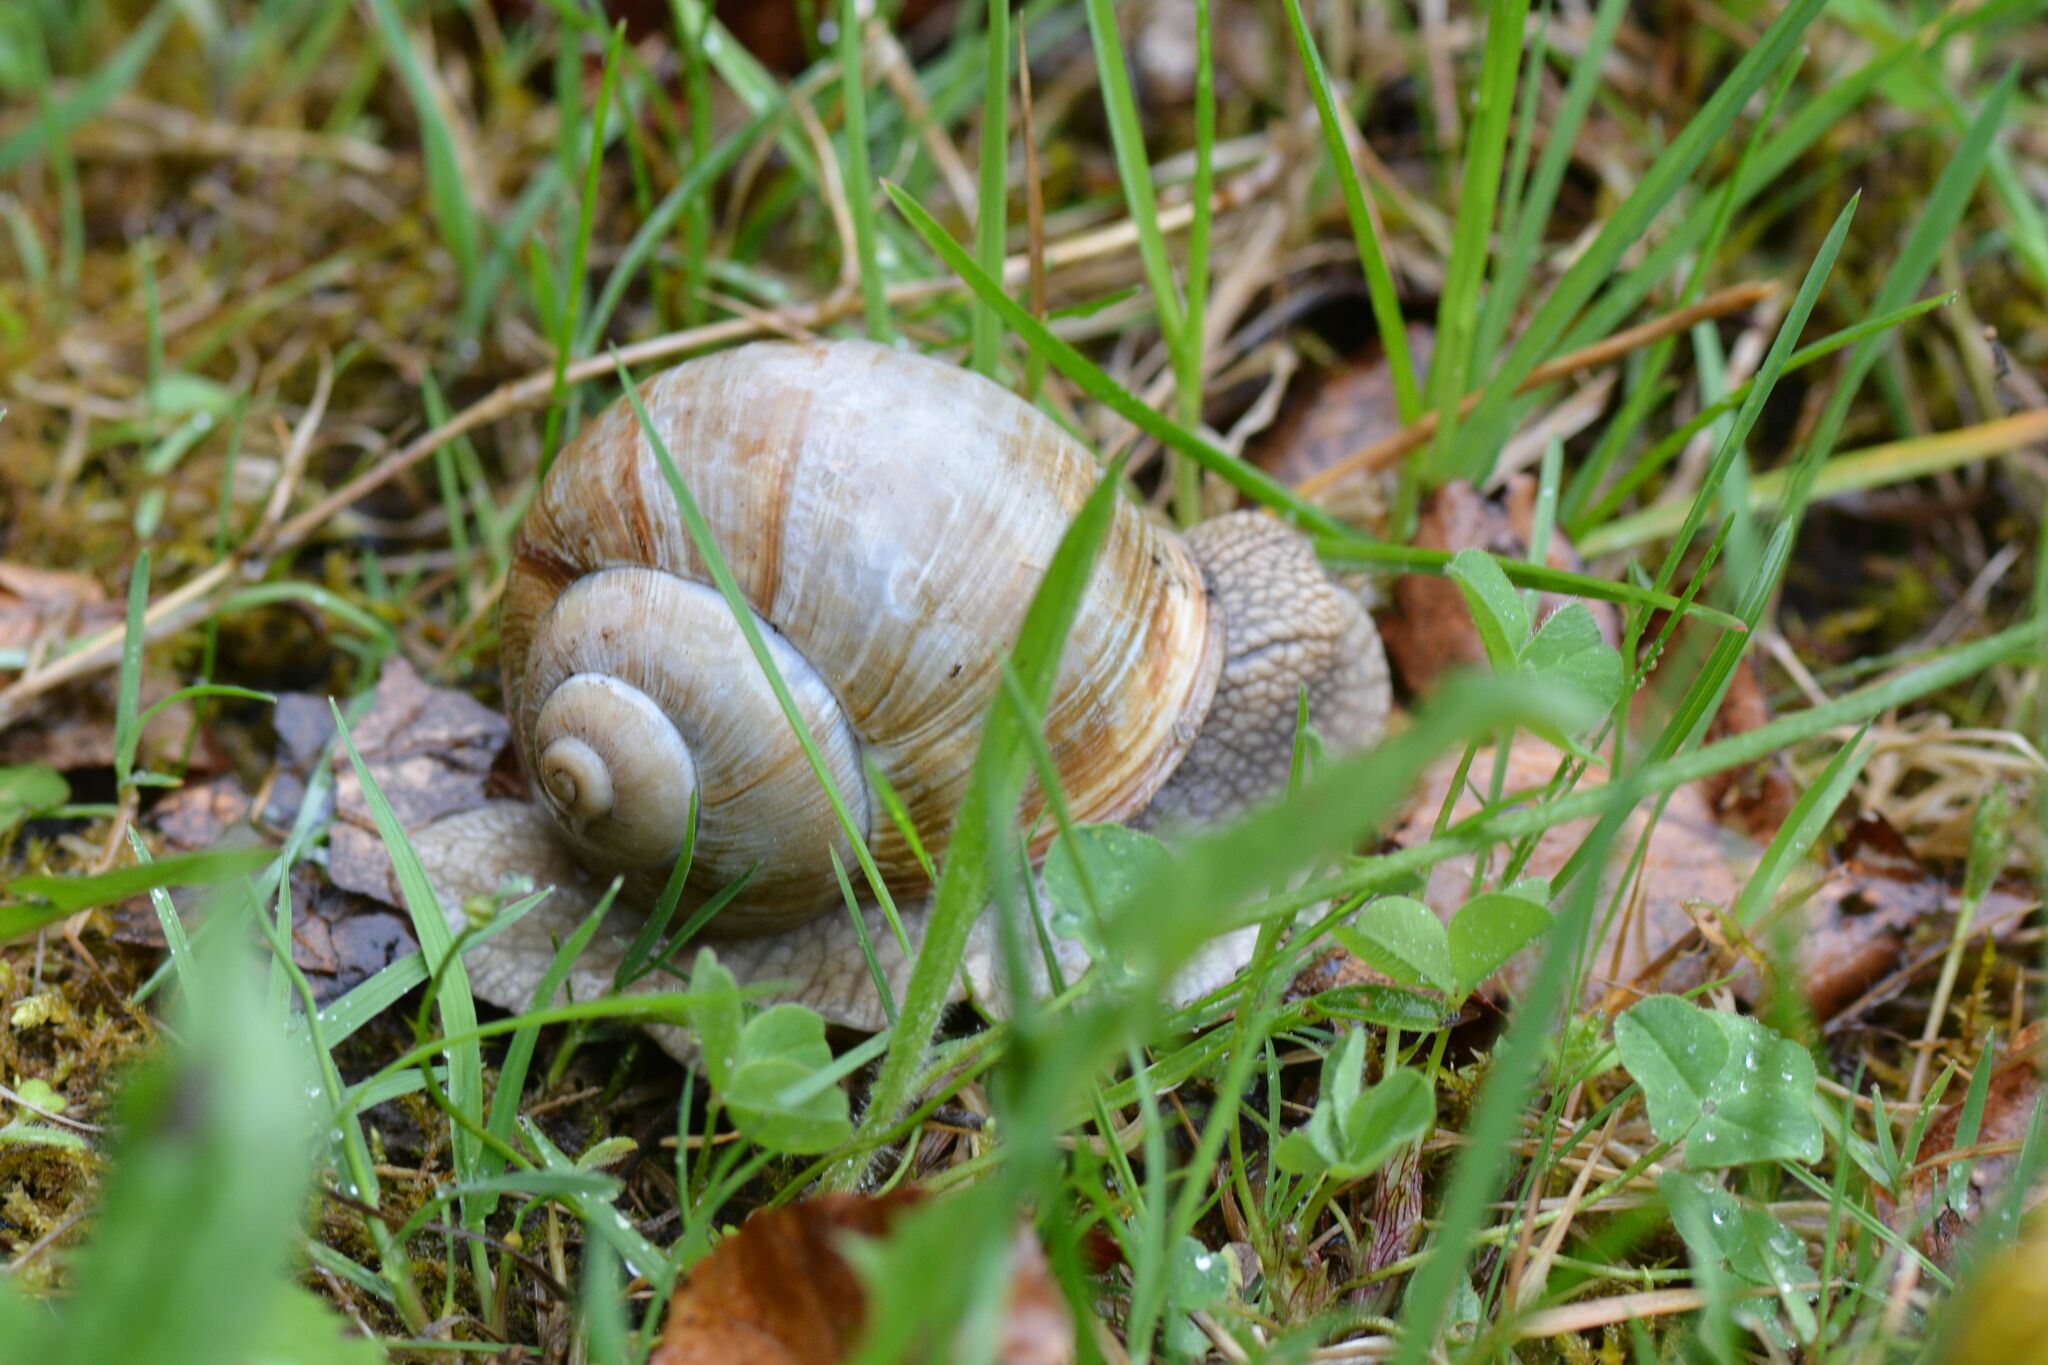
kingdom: Animalia
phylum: Mollusca
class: Gastropoda
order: Stylommatophora
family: Helicidae
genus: Helix
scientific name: Helix pomatia
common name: Roman snail
